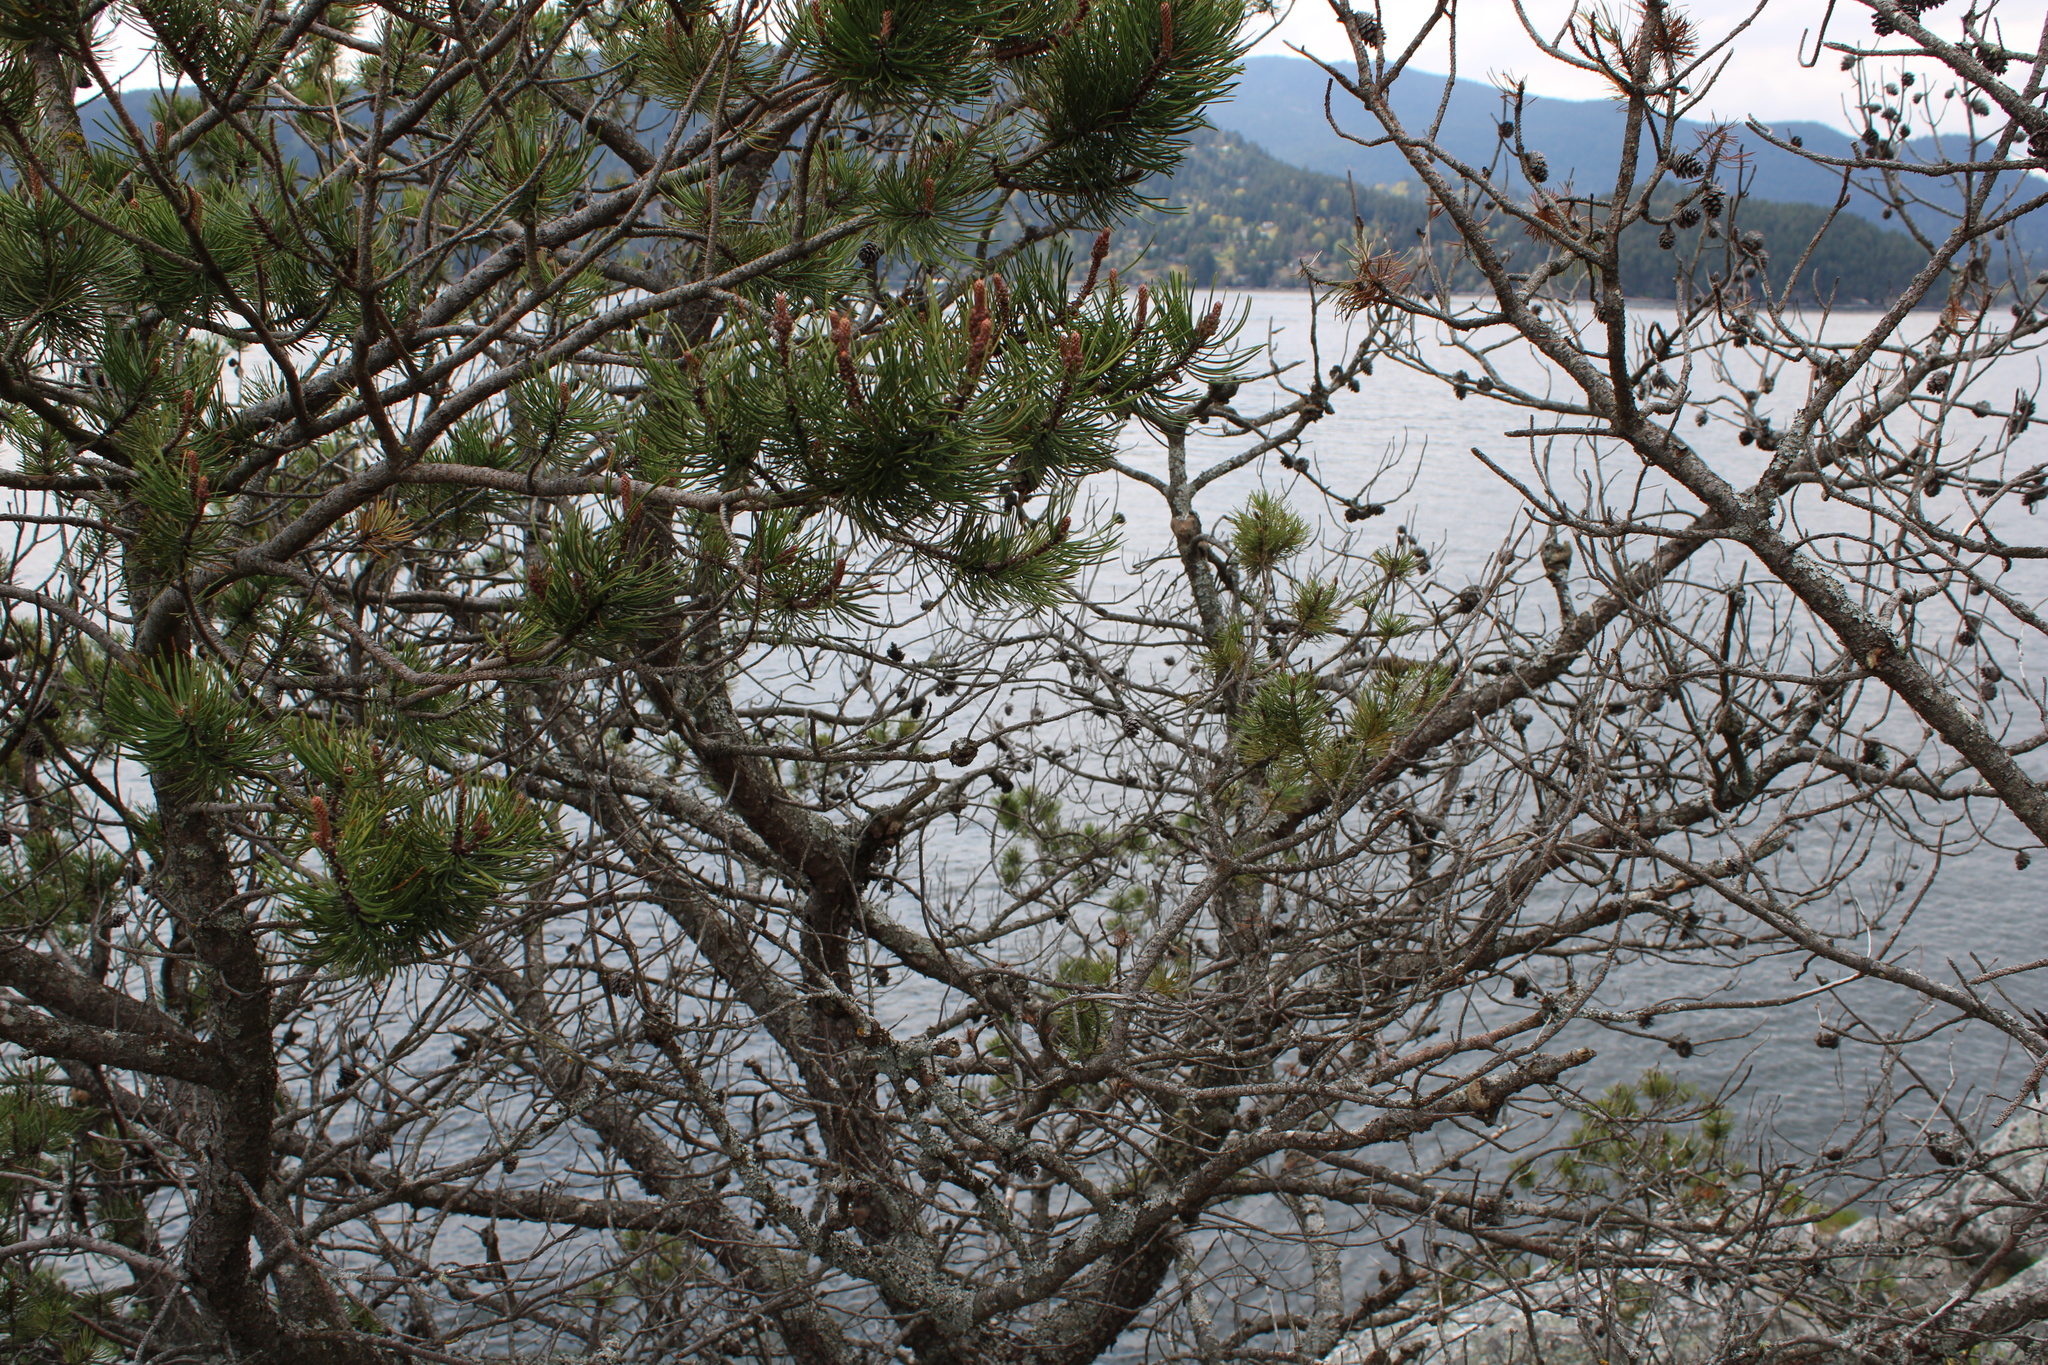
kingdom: Plantae
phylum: Tracheophyta
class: Pinopsida
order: Pinales
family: Pinaceae
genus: Pinus
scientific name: Pinus contorta
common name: Lodgepole pine
